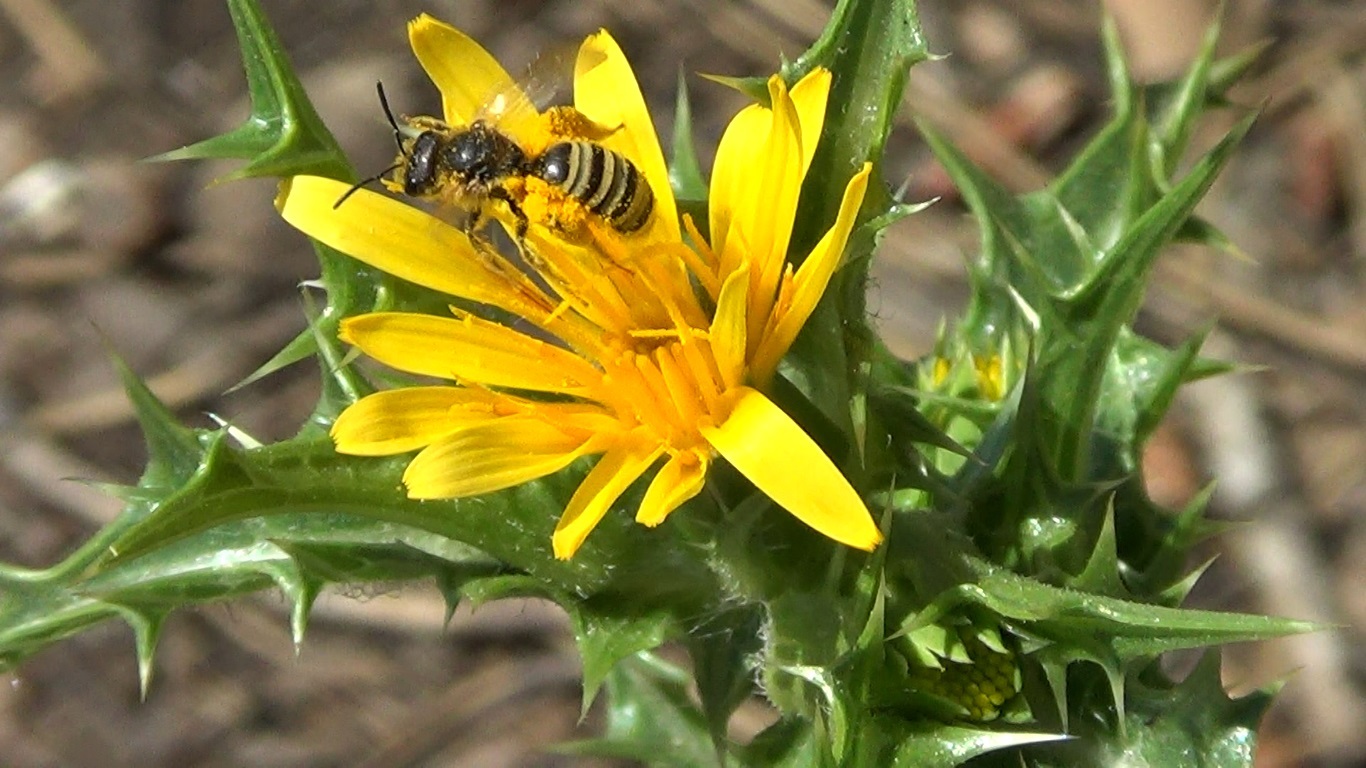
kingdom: Animalia
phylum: Arthropoda
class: Insecta
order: Hymenoptera
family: Halictidae
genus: Halictus
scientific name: Halictus scabiosae
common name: Great banded furrow bee
